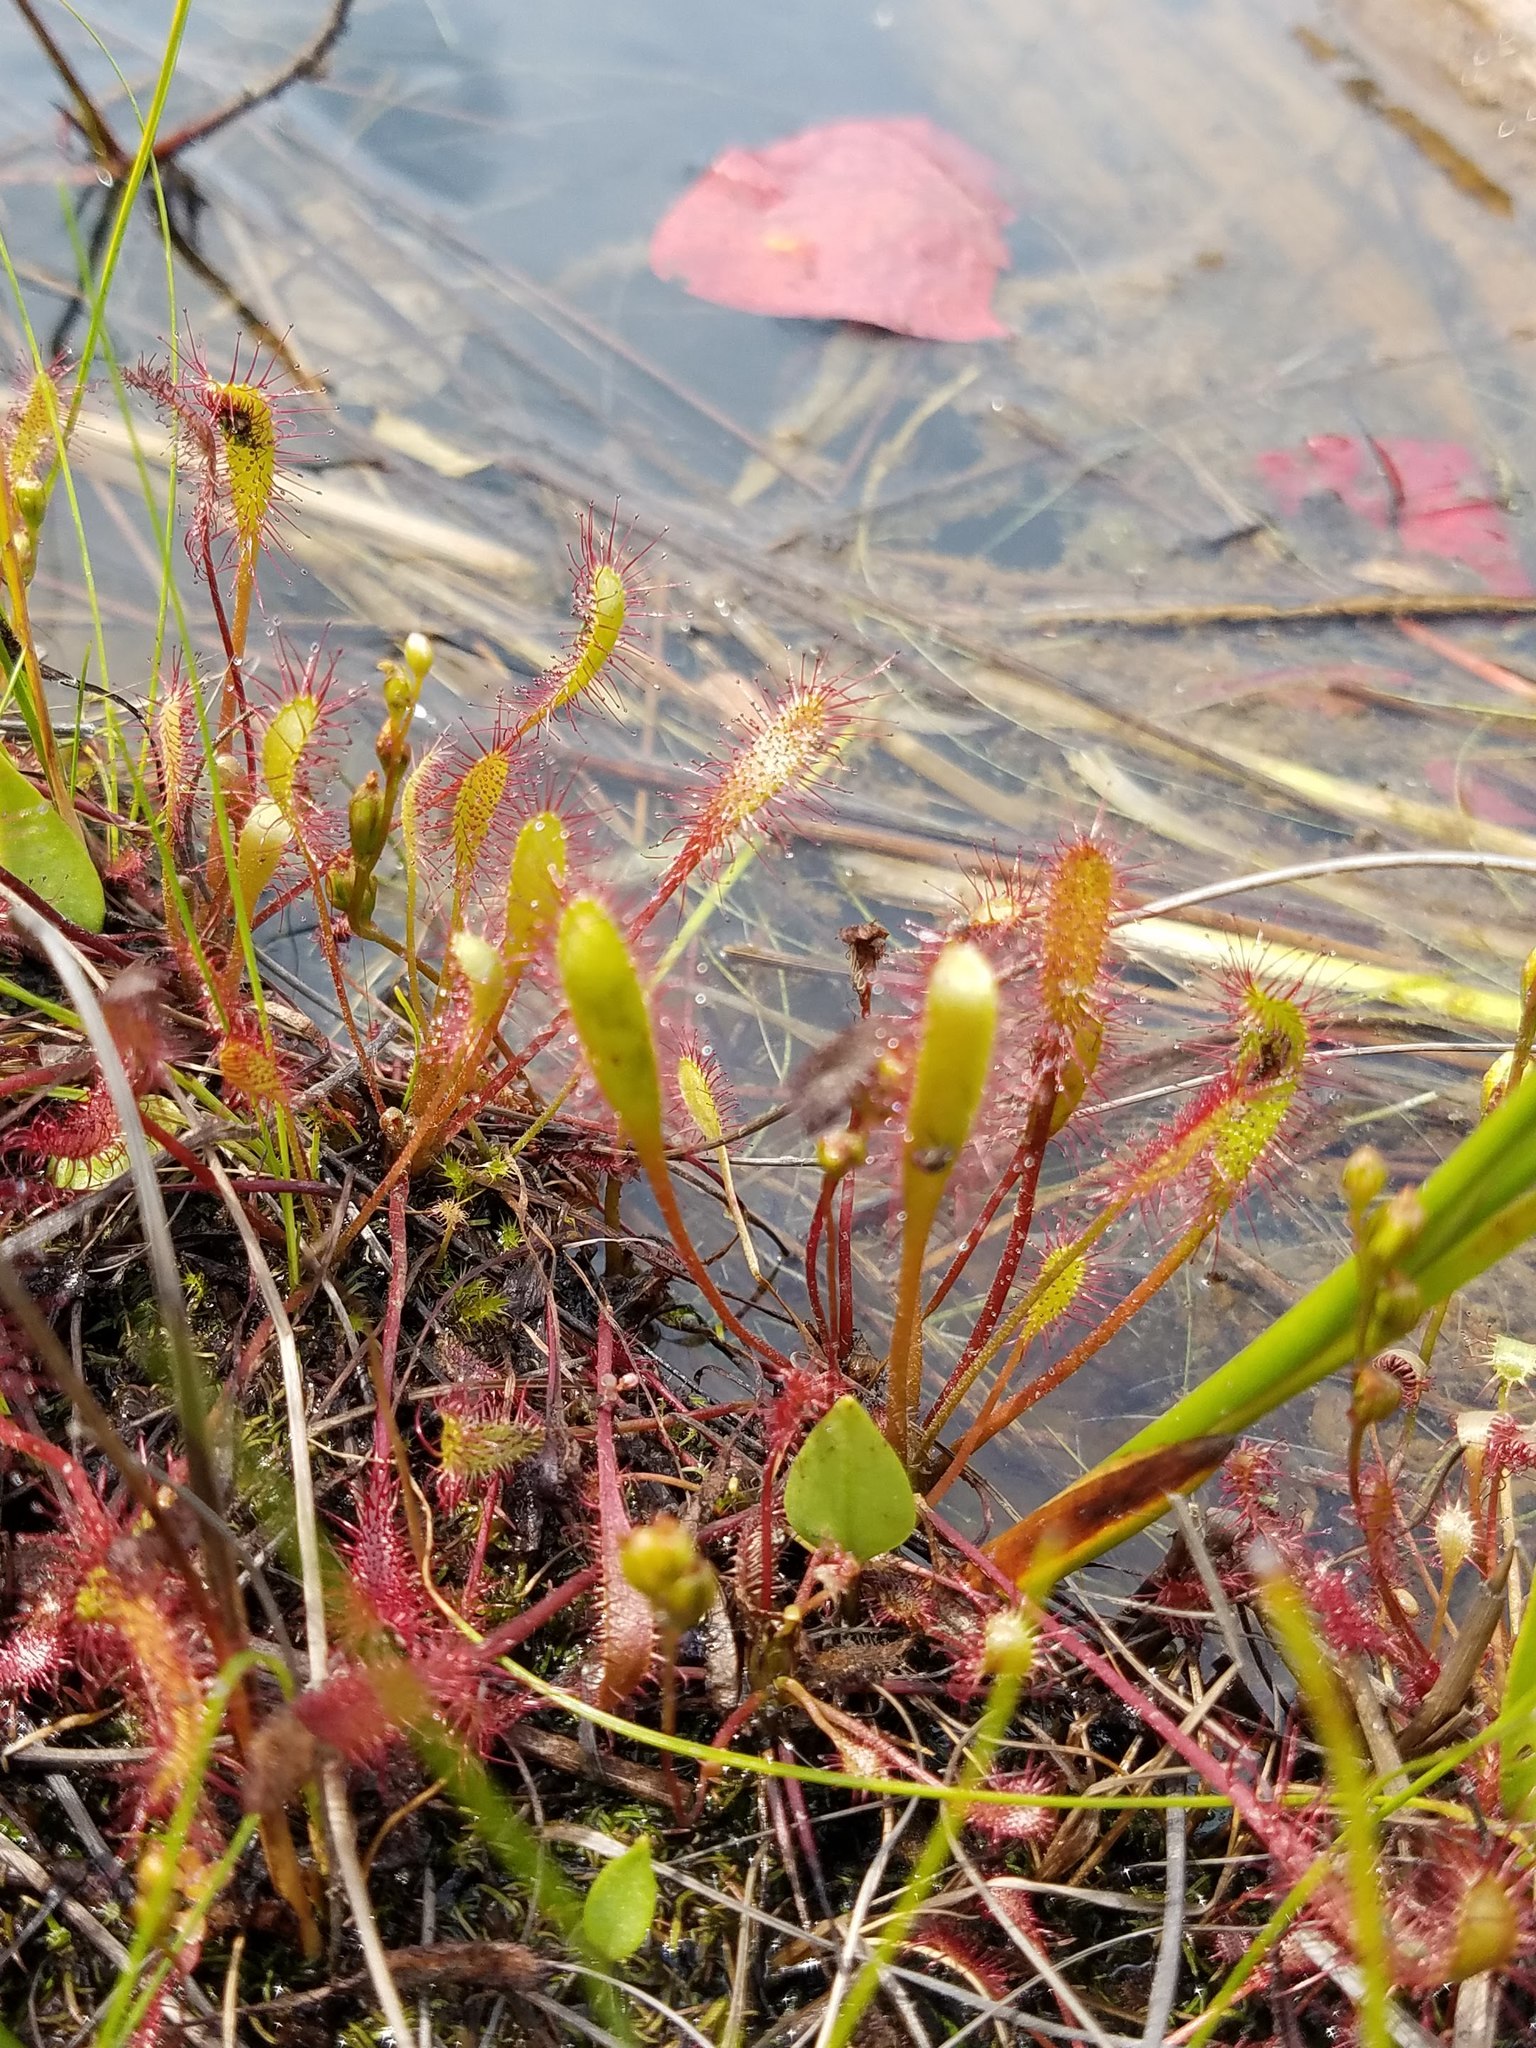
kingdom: Plantae
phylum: Tracheophyta
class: Magnoliopsida
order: Caryophyllales
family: Droseraceae
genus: Drosera
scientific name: Drosera anglica
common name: Great sundew
